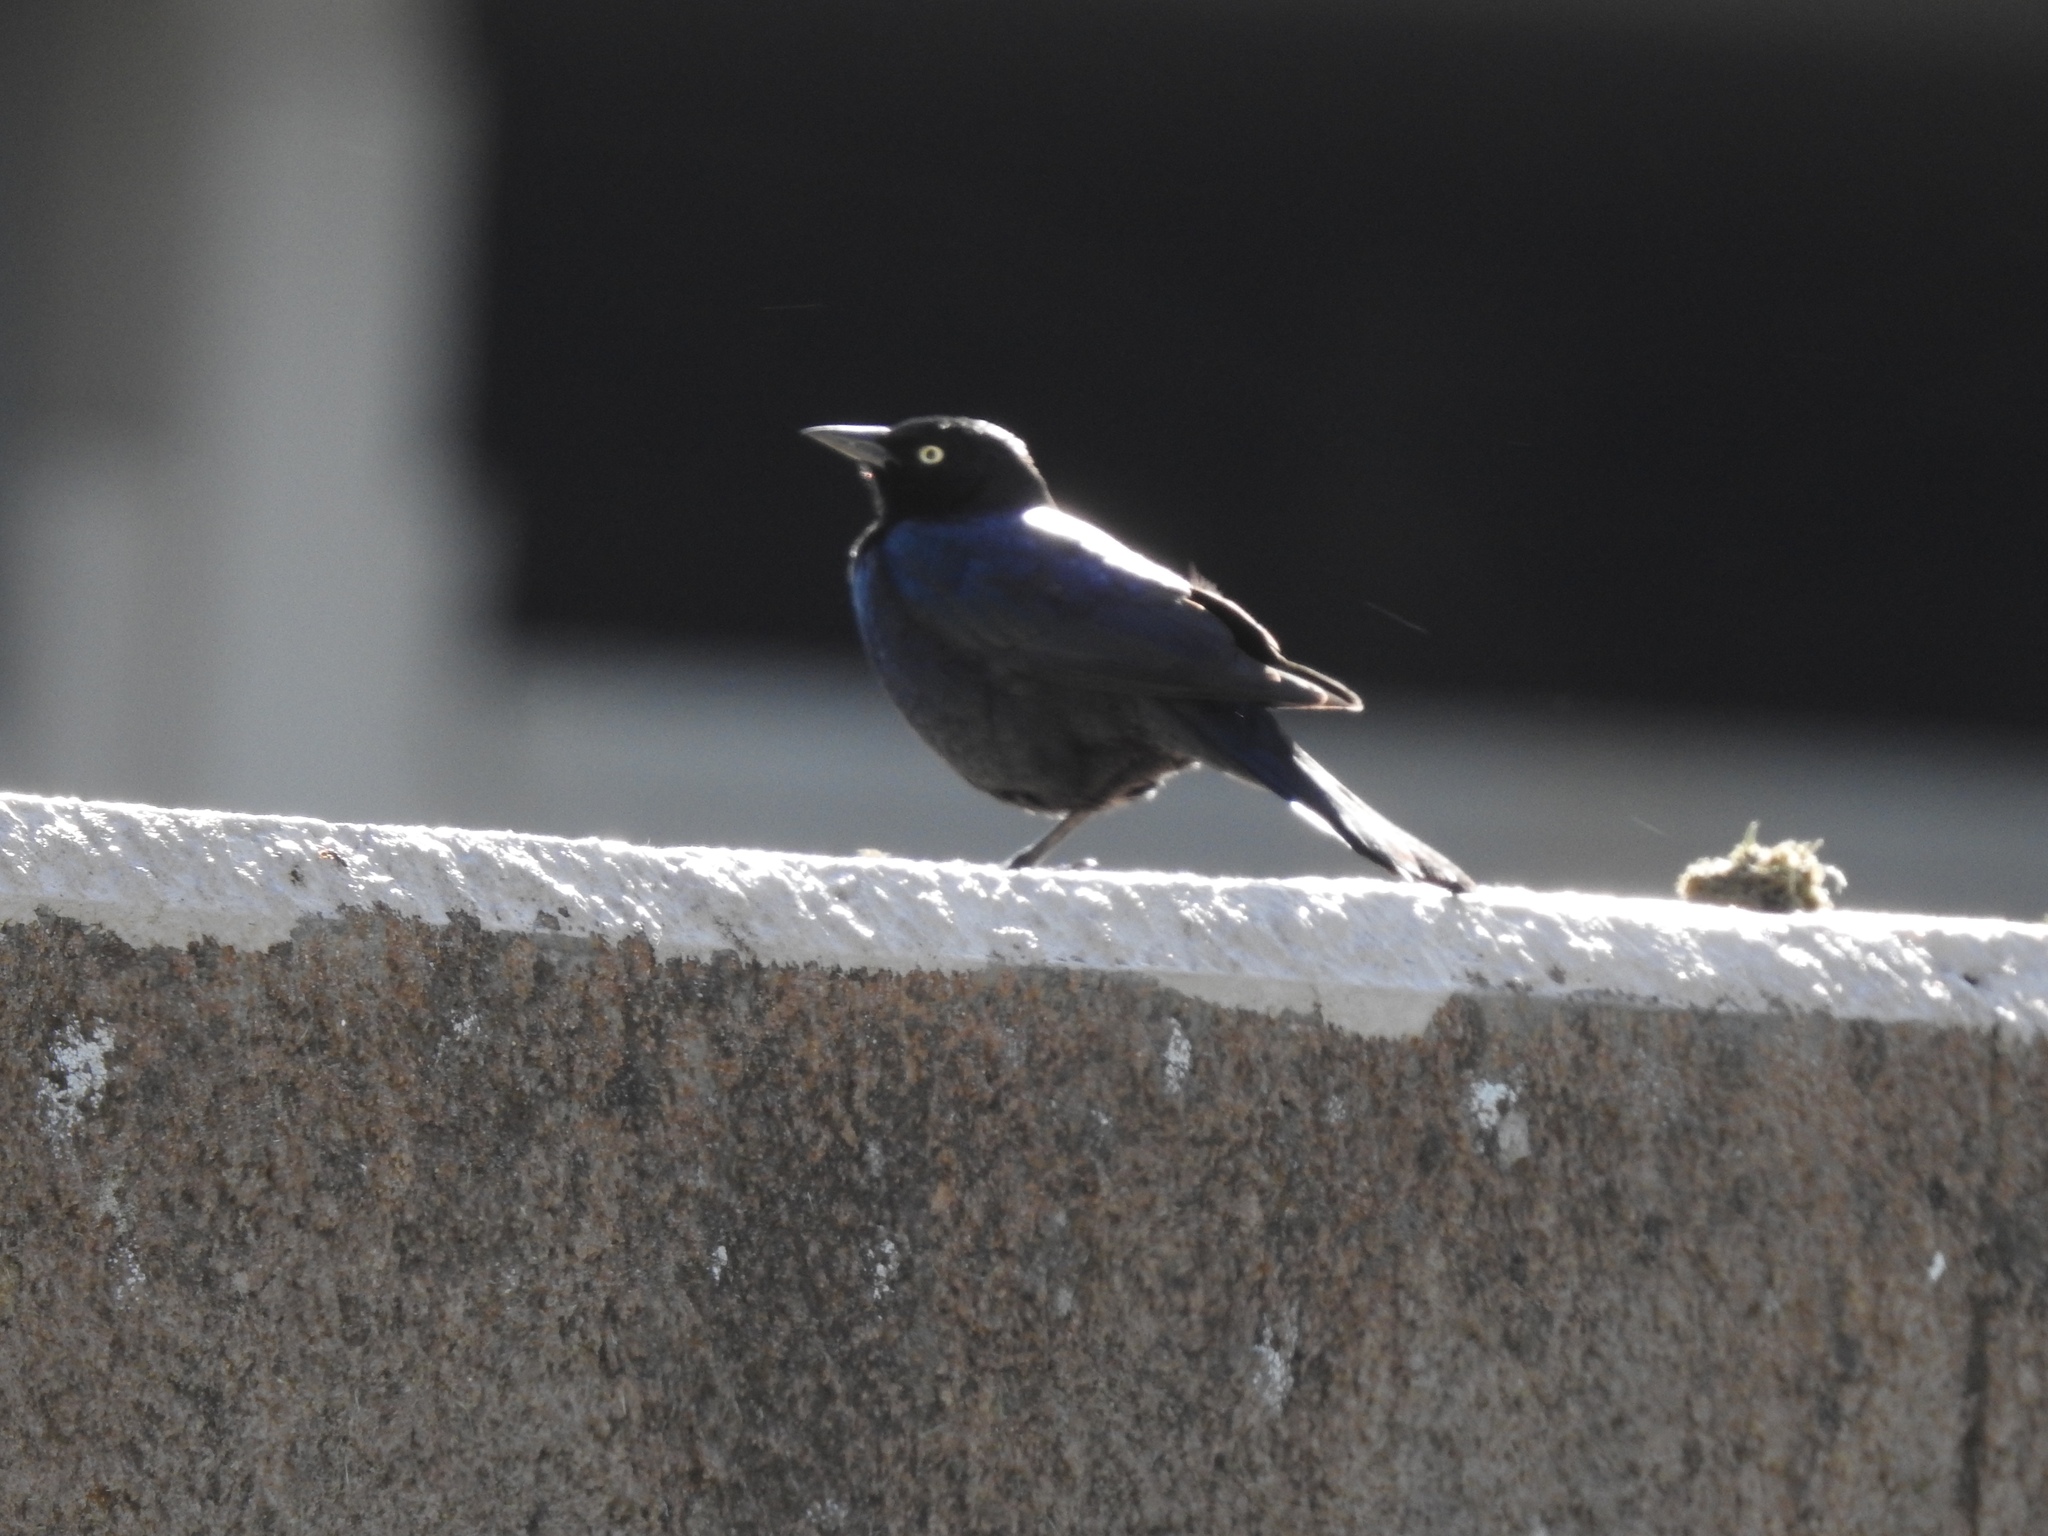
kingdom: Animalia
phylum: Chordata
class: Aves
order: Passeriformes
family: Icteridae
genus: Euphagus
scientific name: Euphagus cyanocephalus
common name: Brewer's blackbird
